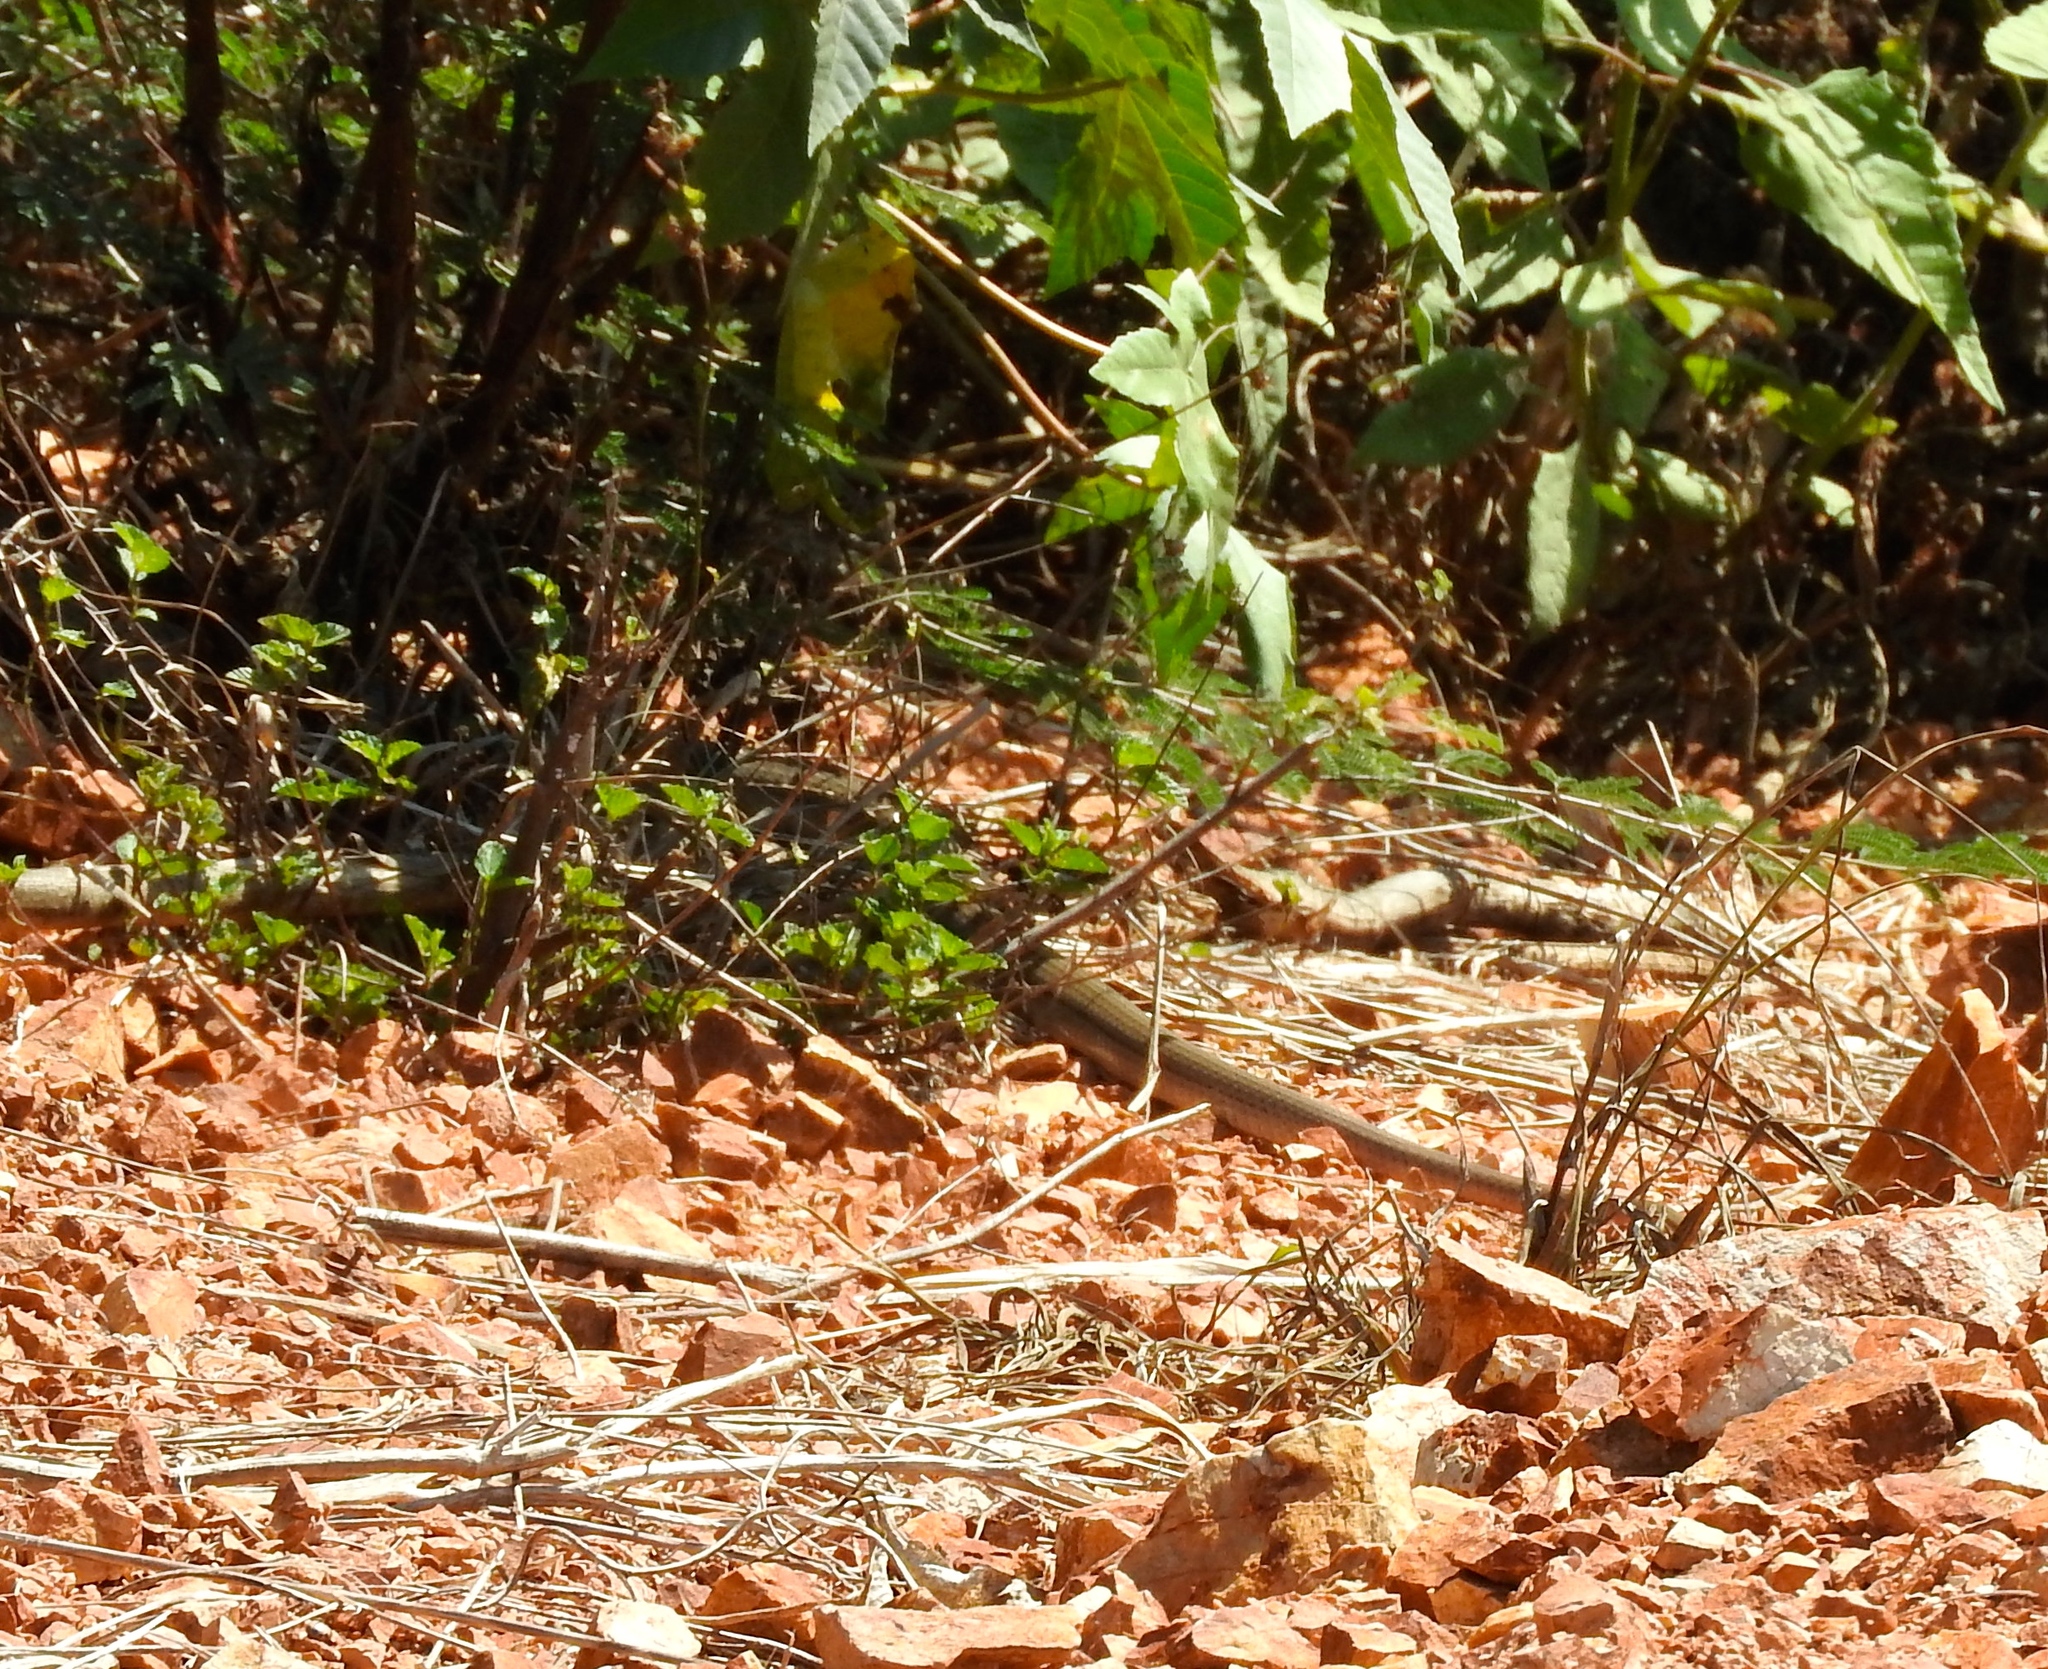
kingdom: Animalia
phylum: Chordata
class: Squamata
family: Colubridae
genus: Masticophis
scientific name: Masticophis mentovarius
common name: Neotropical whip snake
